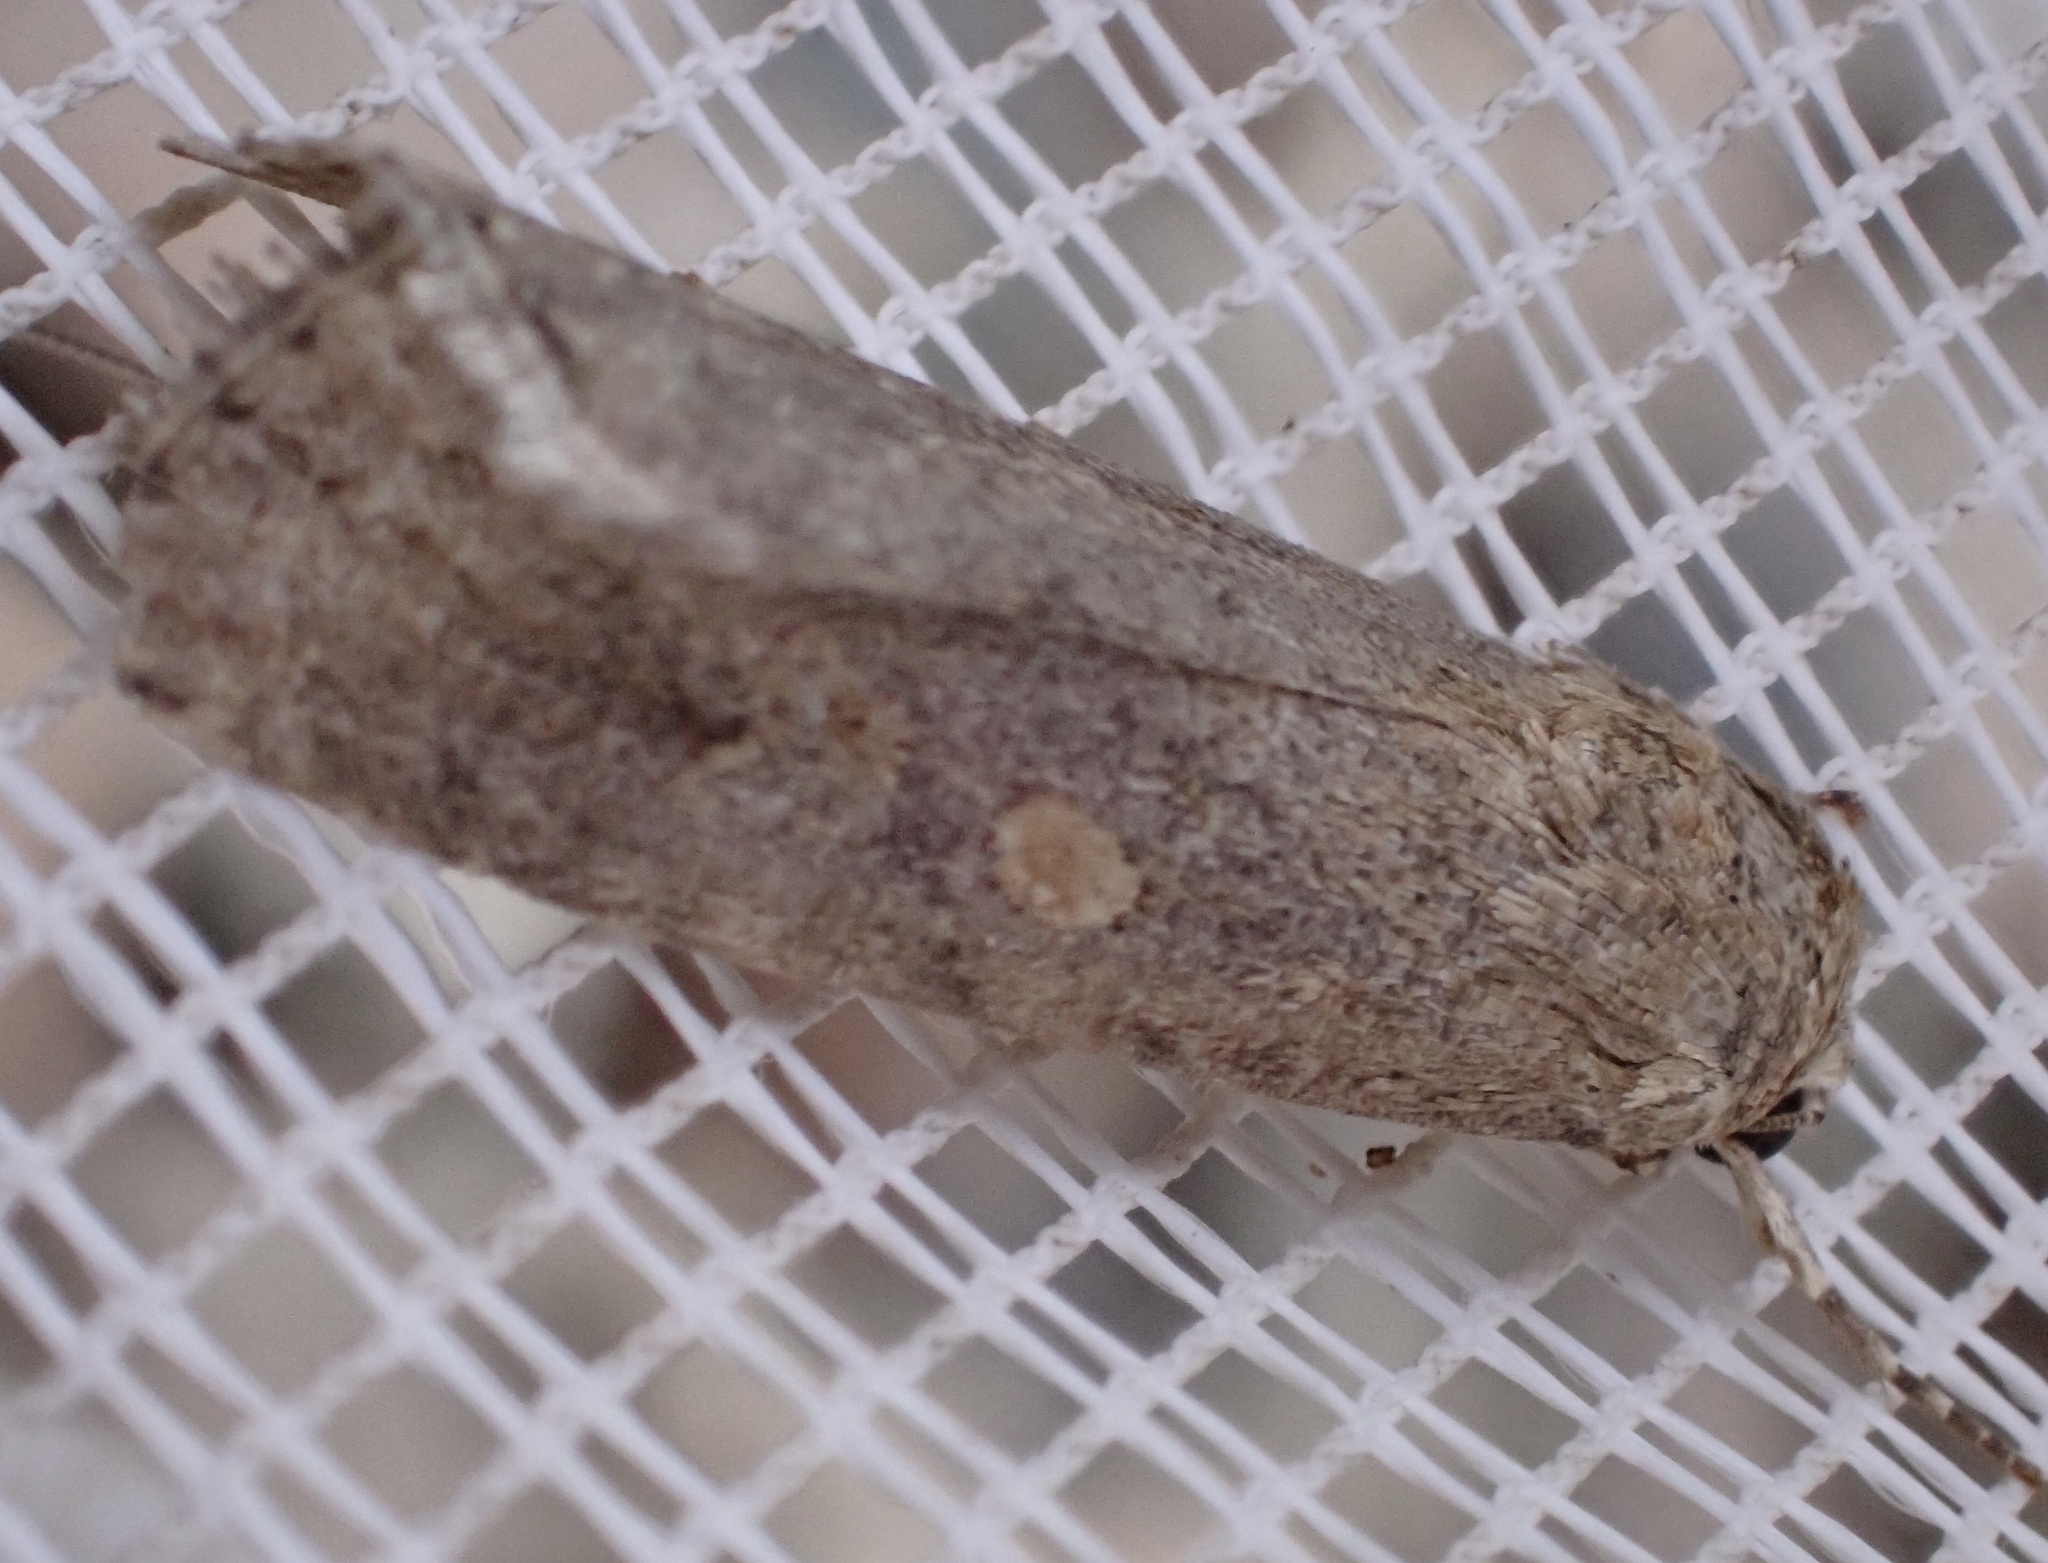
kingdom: Animalia
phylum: Arthropoda
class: Insecta
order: Lepidoptera
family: Noctuidae
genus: Spodoptera
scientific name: Spodoptera exigua
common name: Beet armyworm
